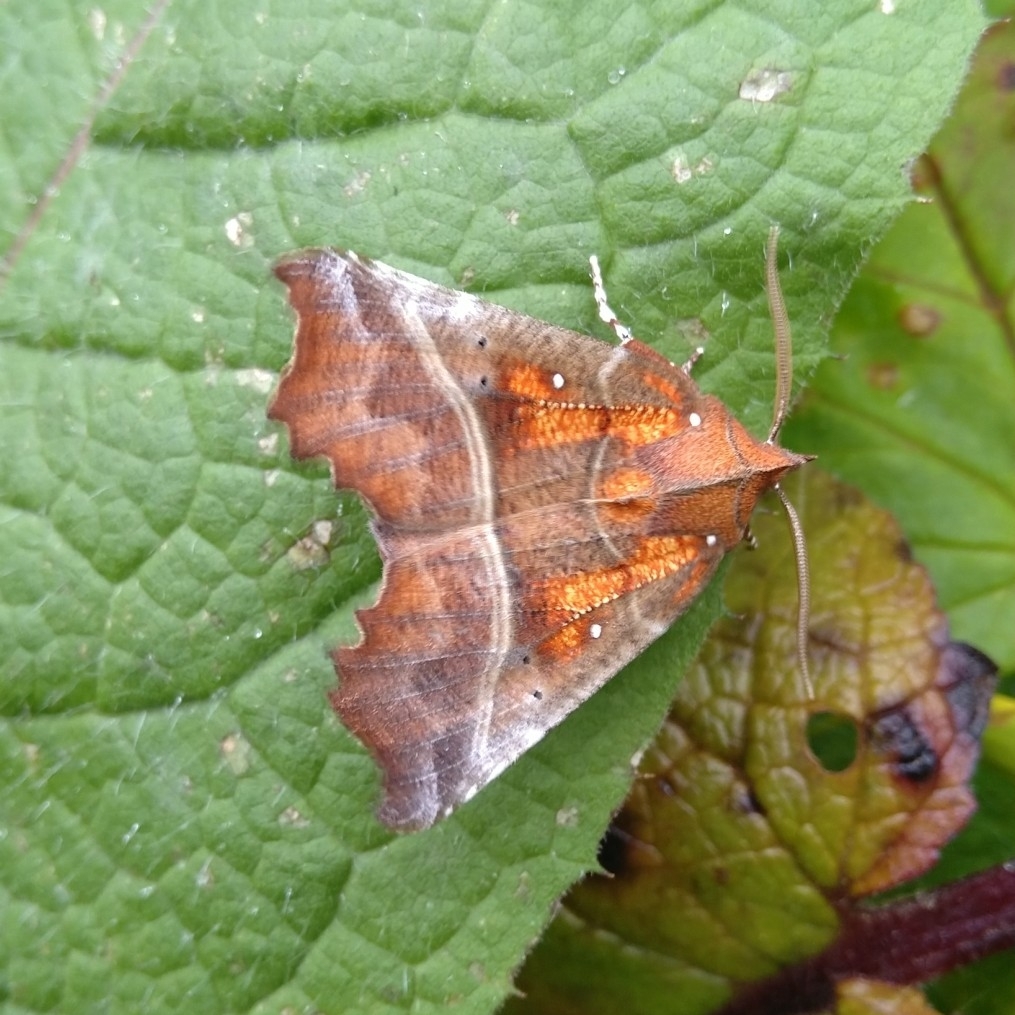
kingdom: Animalia
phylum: Arthropoda
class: Insecta
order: Lepidoptera
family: Erebidae
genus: Scoliopteryx
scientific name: Scoliopteryx libatrix
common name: Herald
